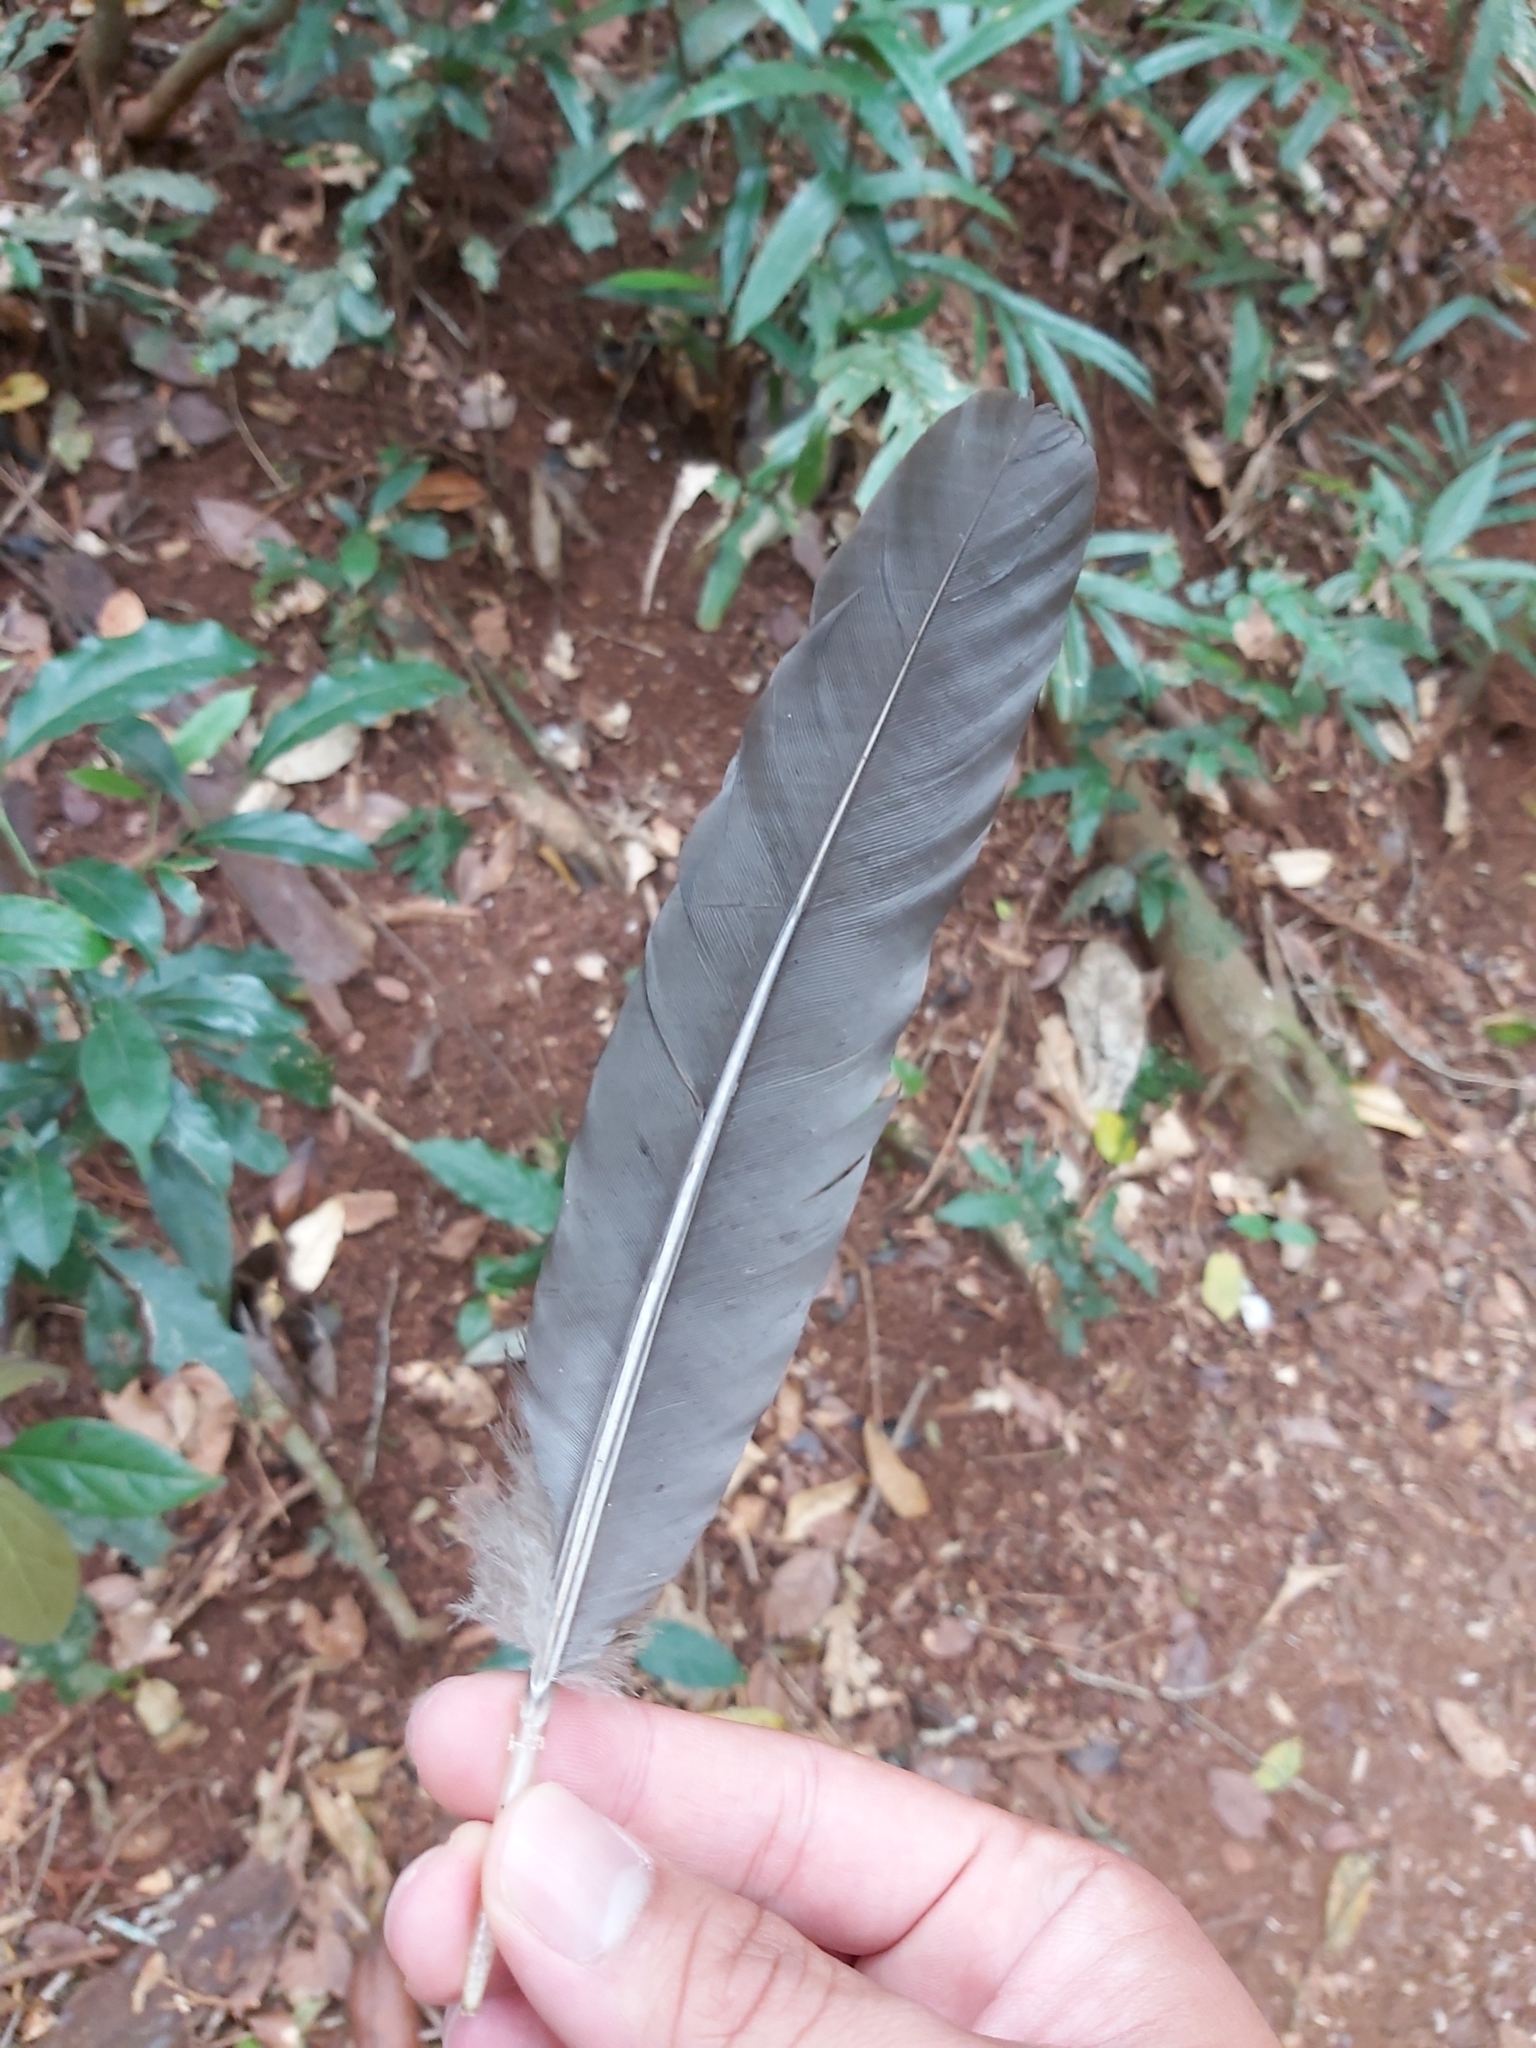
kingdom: Animalia
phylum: Chordata
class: Aves
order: Galliformes
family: Megapodiidae
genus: Alectura
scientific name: Alectura lathami
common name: Australian brushturkey
